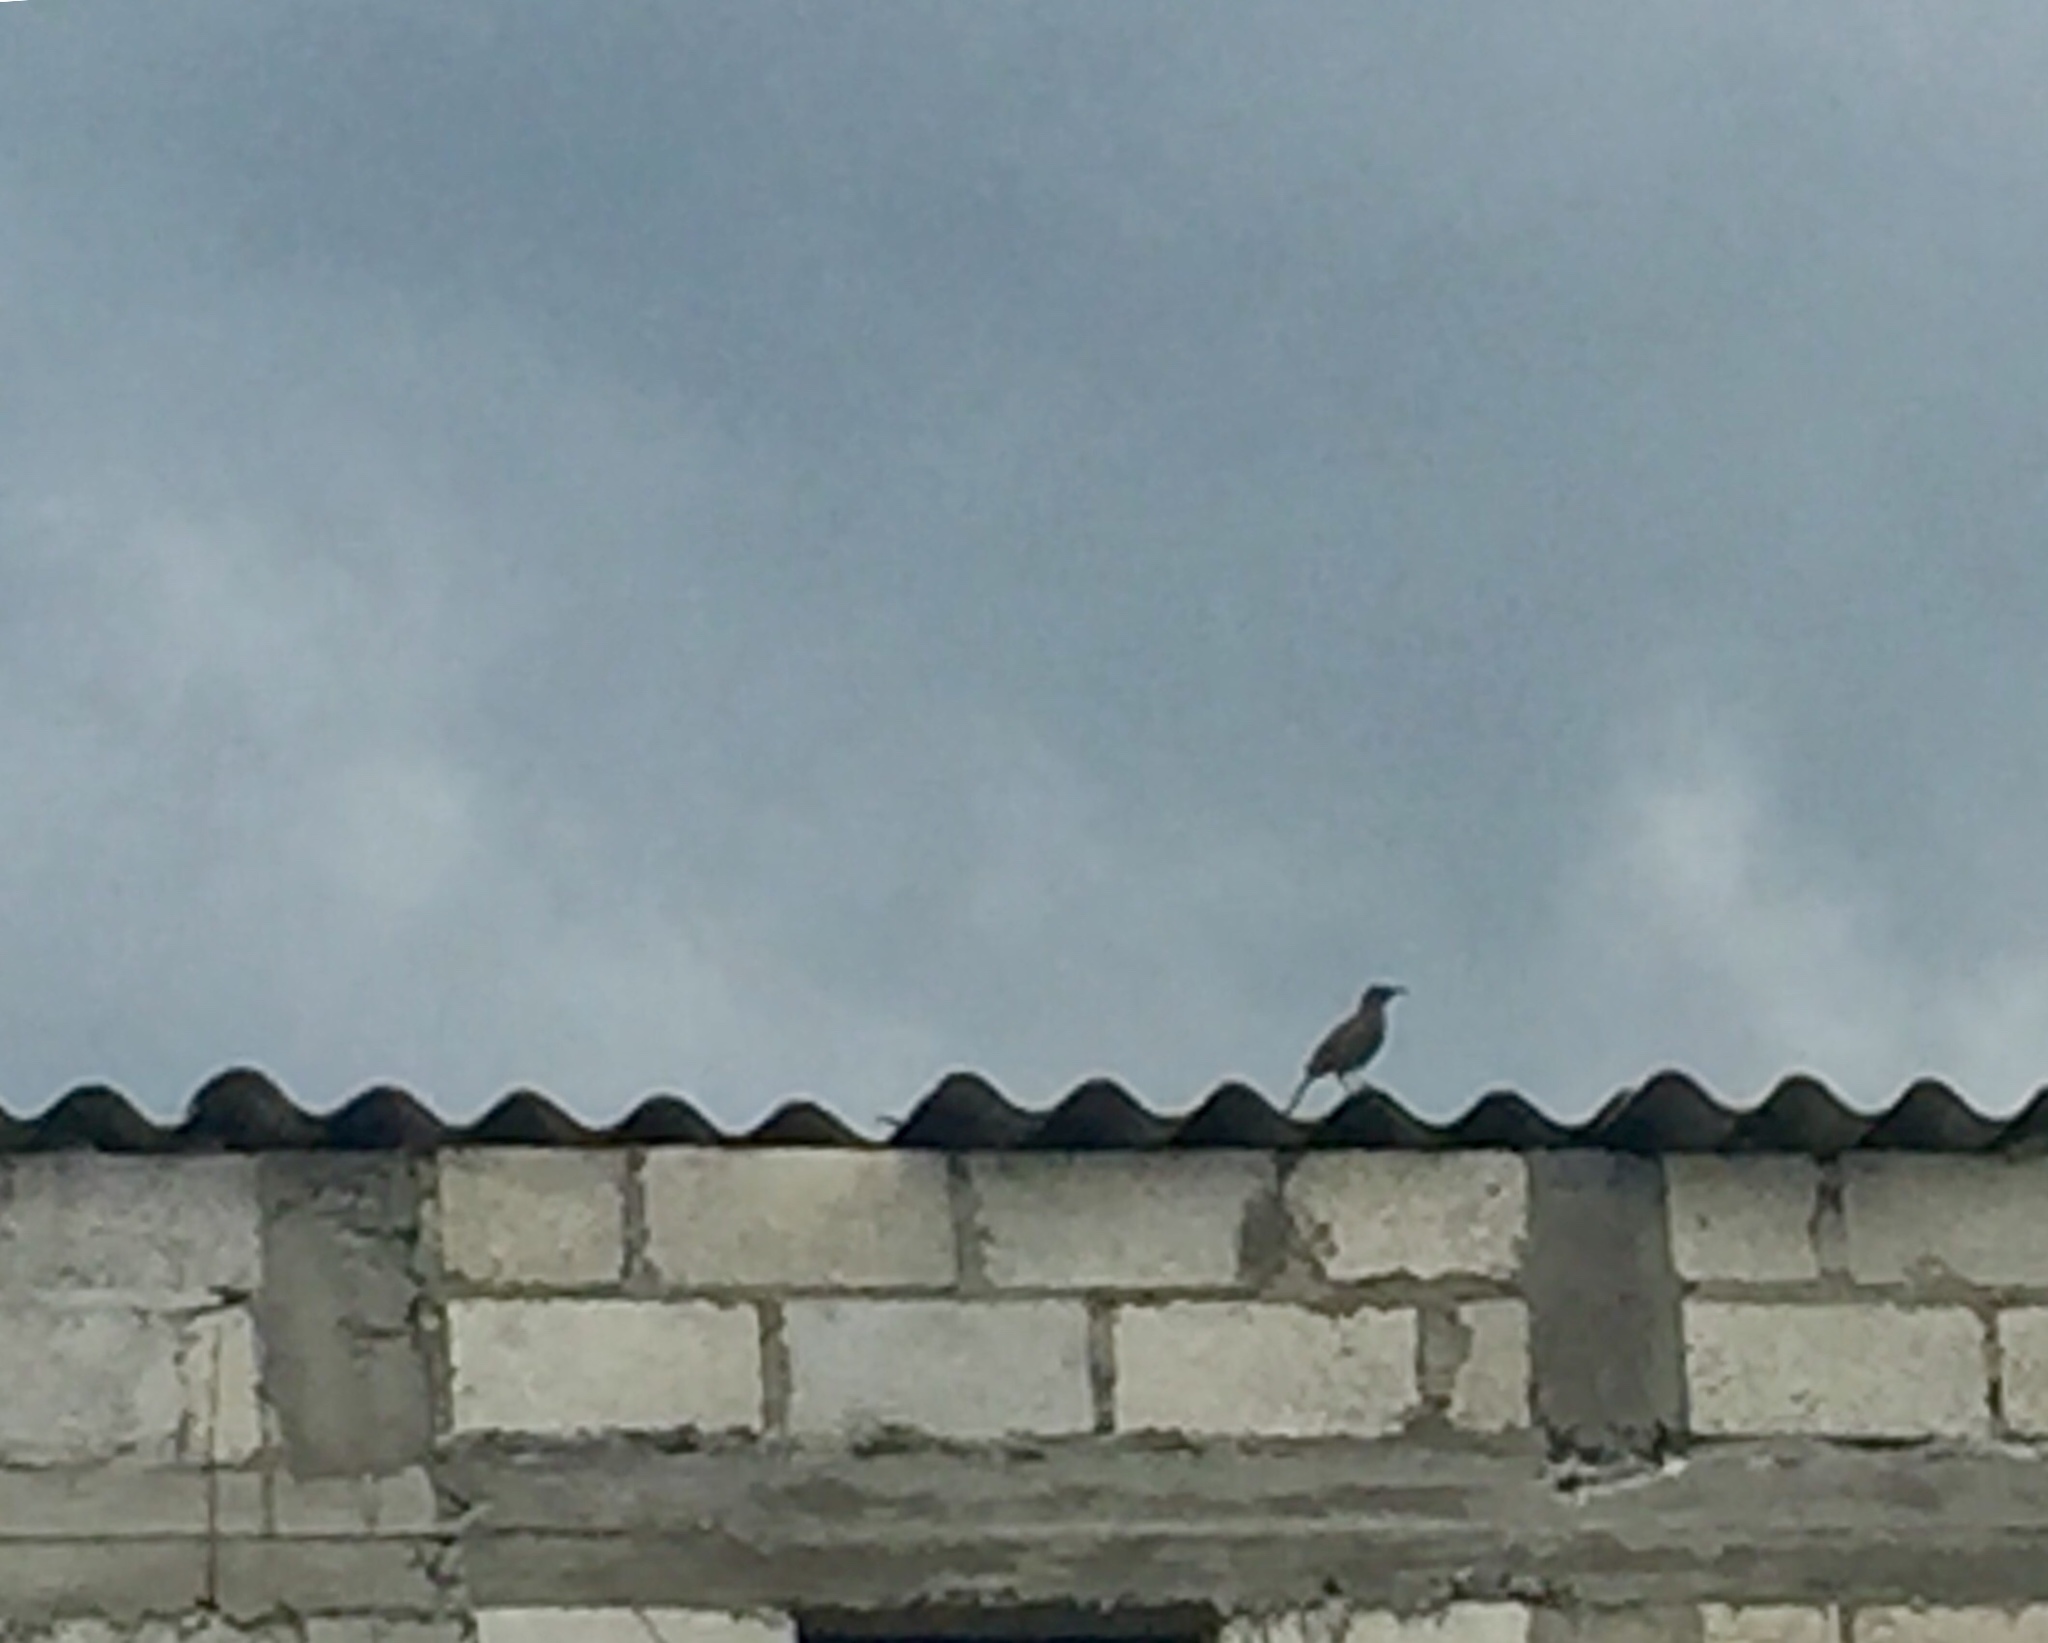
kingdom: Animalia
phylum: Chordata
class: Aves
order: Passeriformes
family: Mimidae
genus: Toxostoma
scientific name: Toxostoma curvirostre
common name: Curve-billed thrasher
